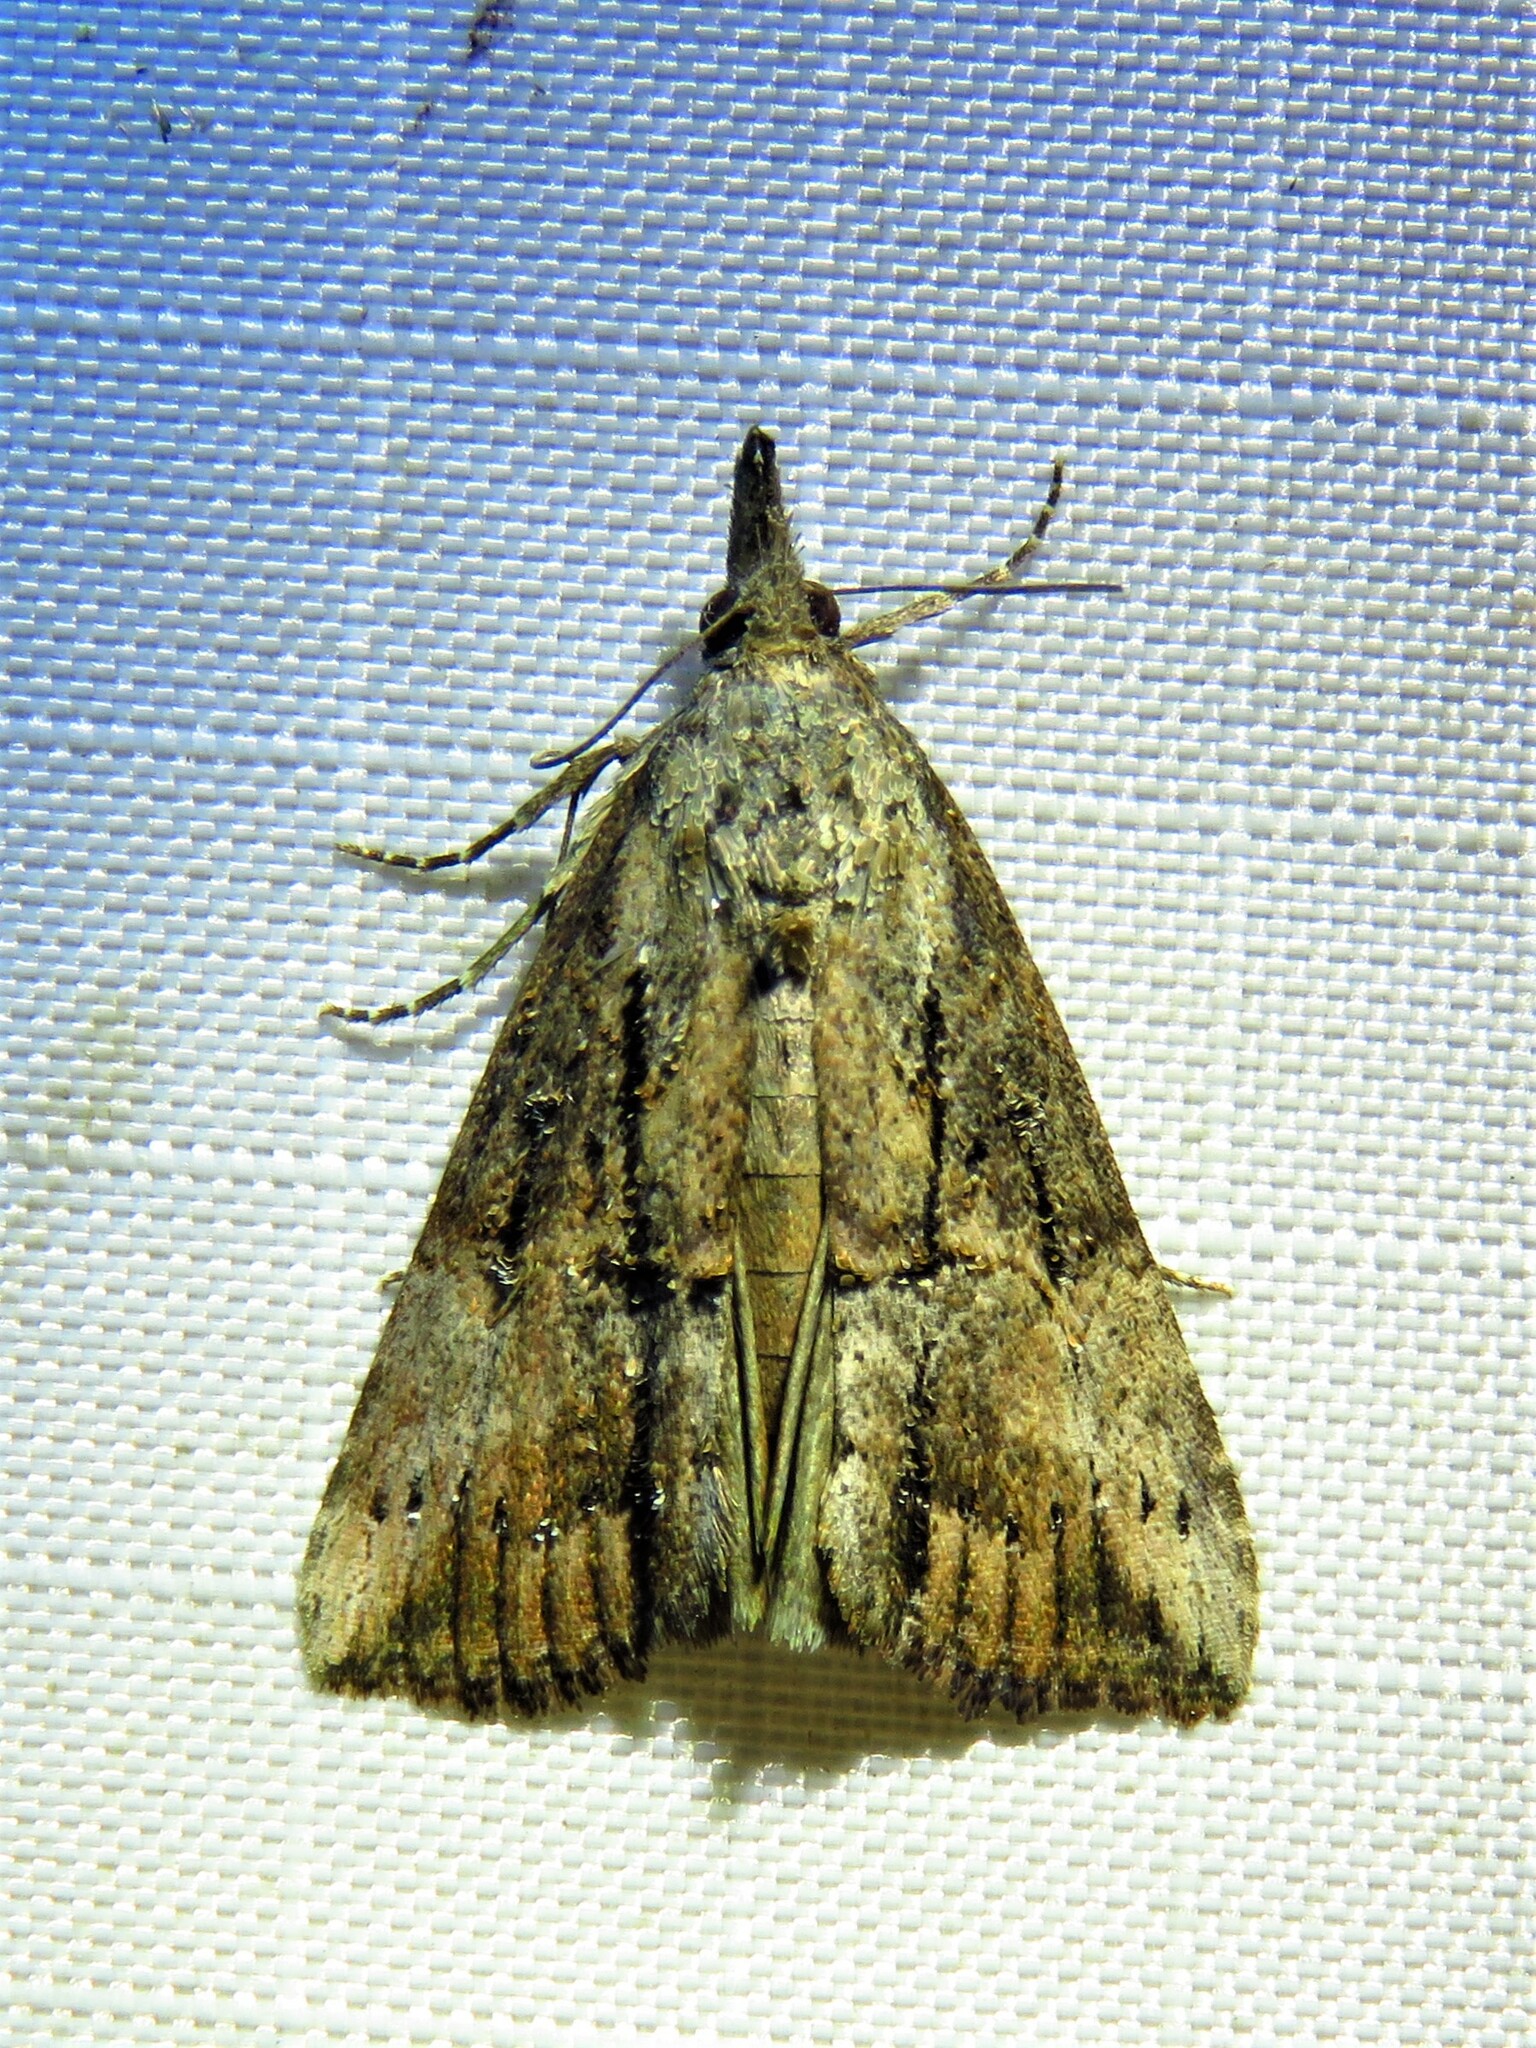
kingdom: Animalia
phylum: Arthropoda
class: Insecta
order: Lepidoptera
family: Erebidae
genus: Hypena
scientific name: Hypena scabra
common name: Green cloverworm
